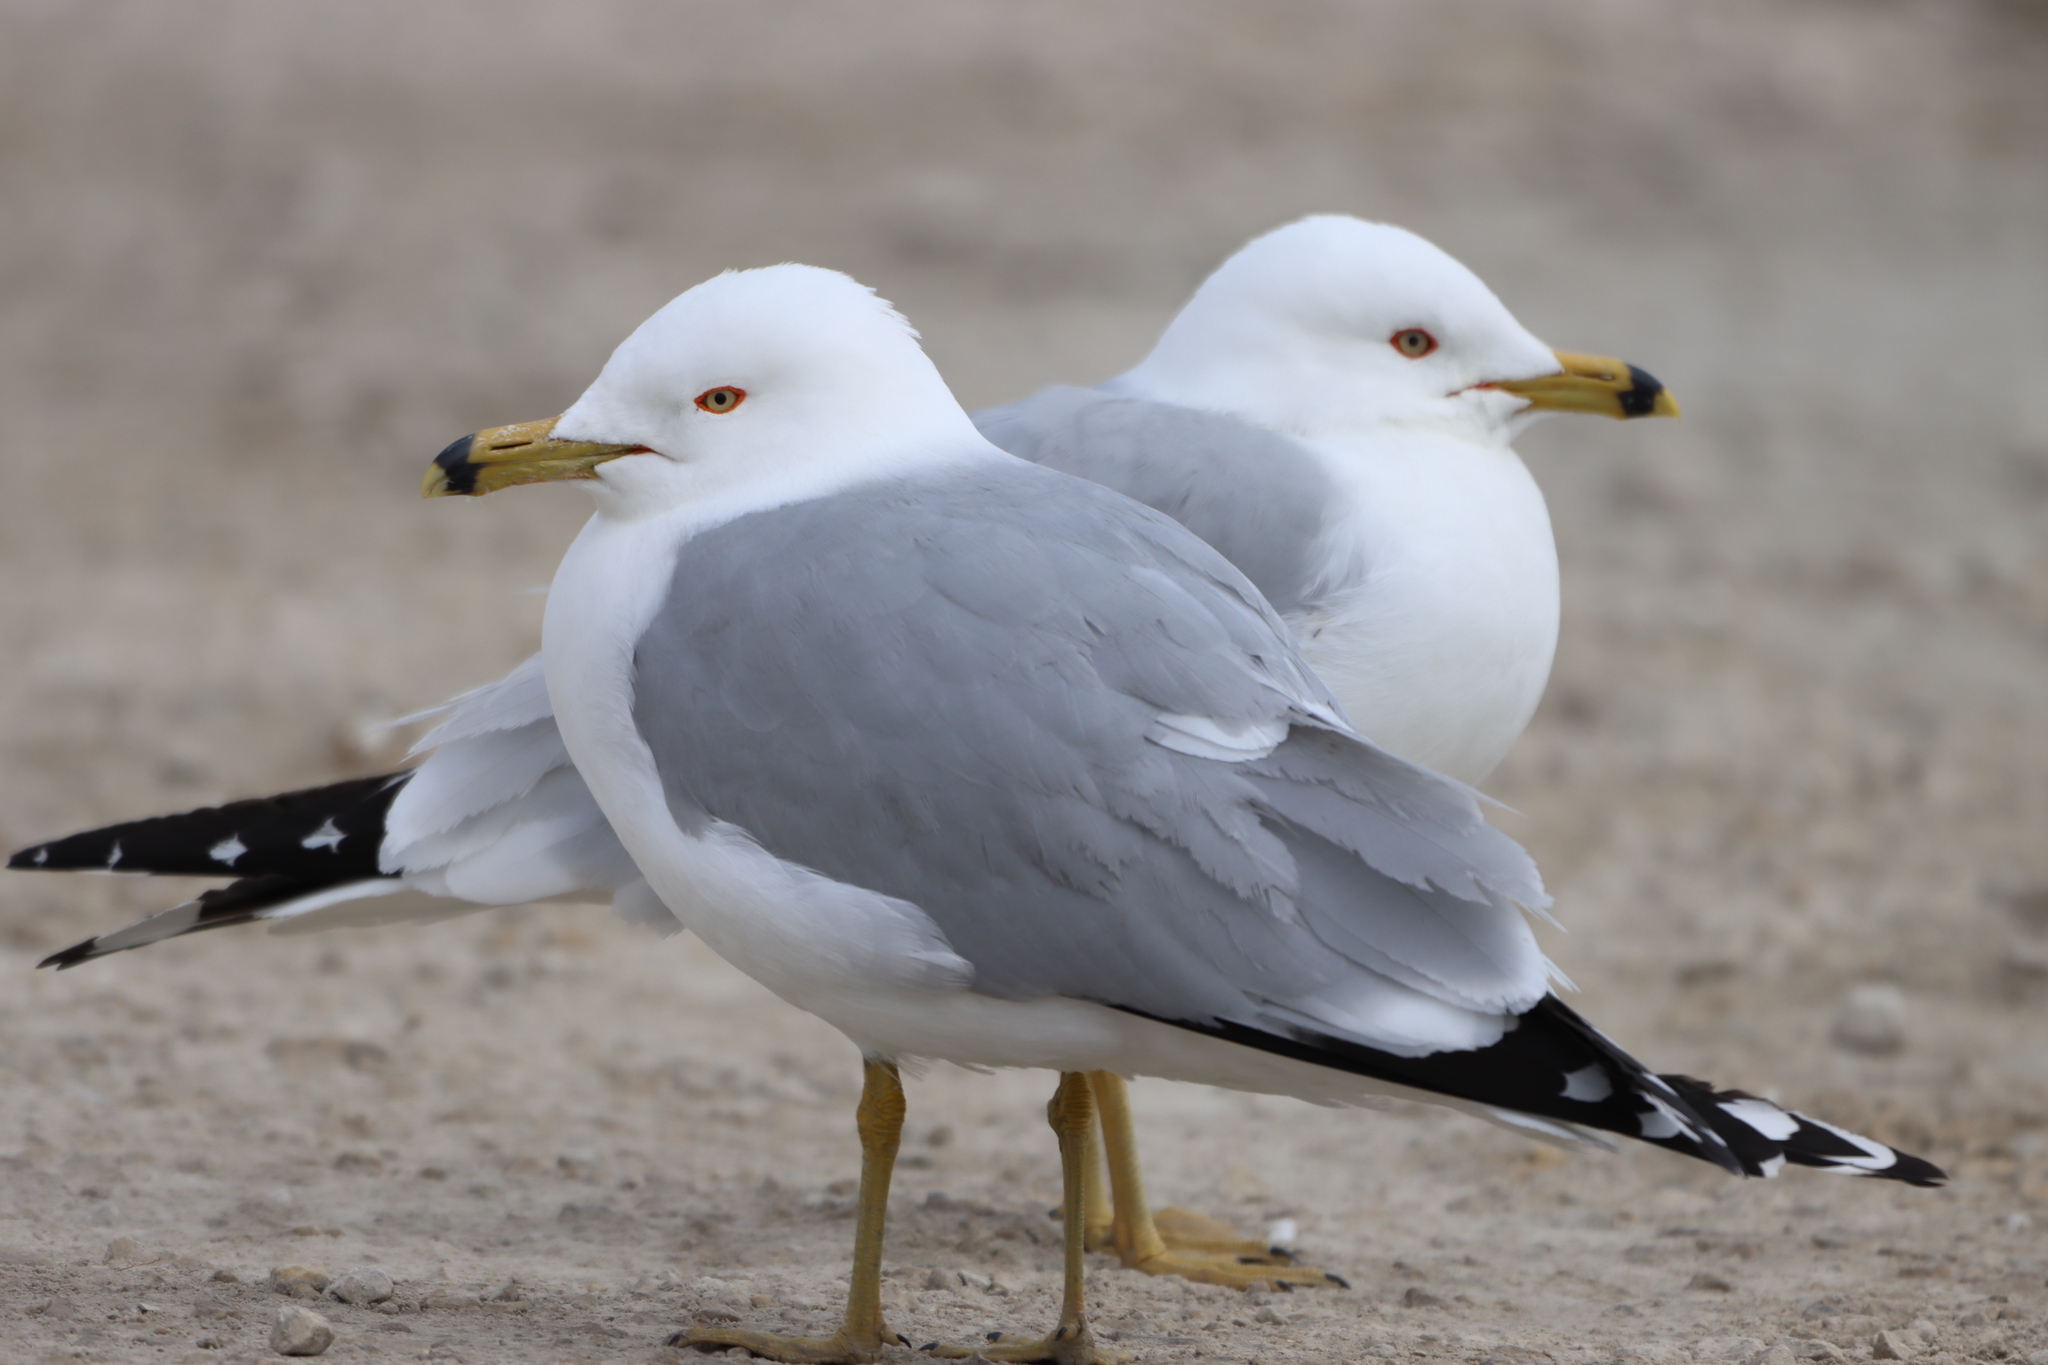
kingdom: Animalia
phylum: Chordata
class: Aves
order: Charadriiformes
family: Laridae
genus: Larus
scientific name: Larus delawarensis
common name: Ring-billed gull
